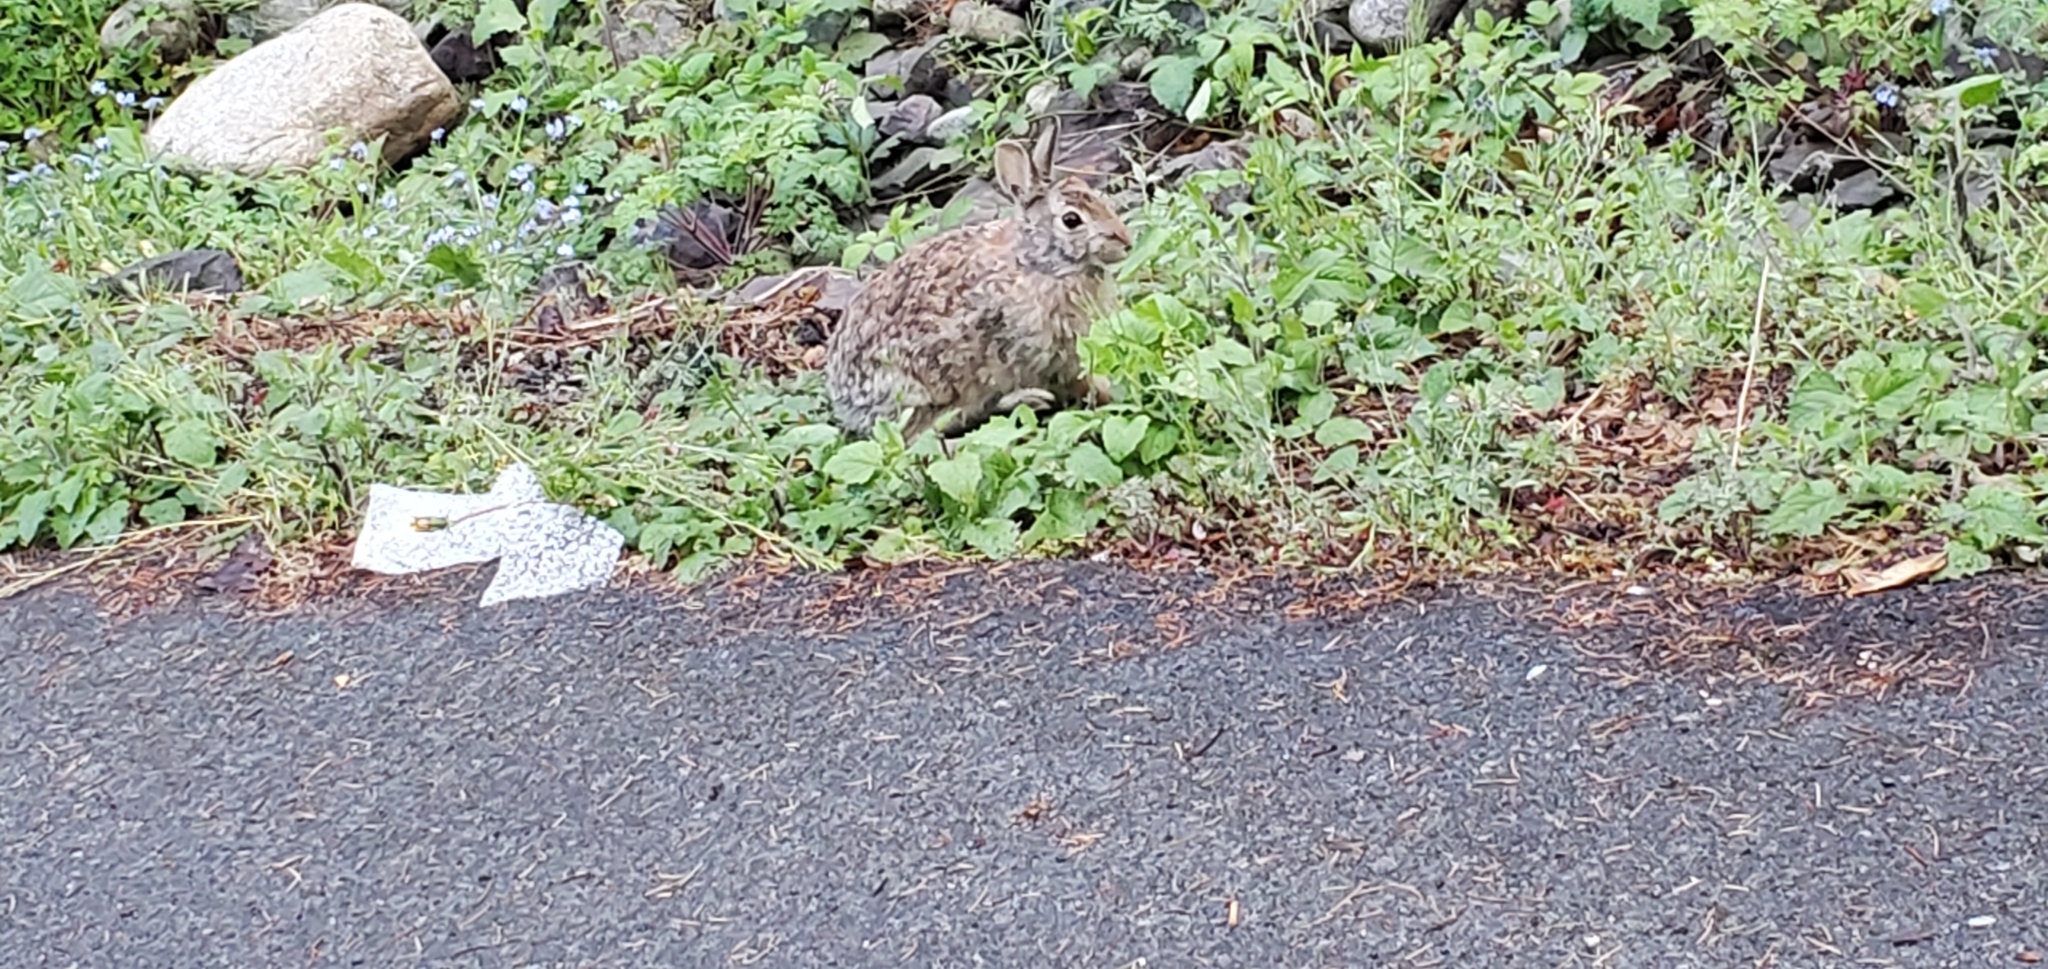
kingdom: Animalia
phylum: Chordata
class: Mammalia
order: Lagomorpha
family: Leporidae
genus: Sylvilagus
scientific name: Sylvilagus floridanus
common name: Eastern cottontail
